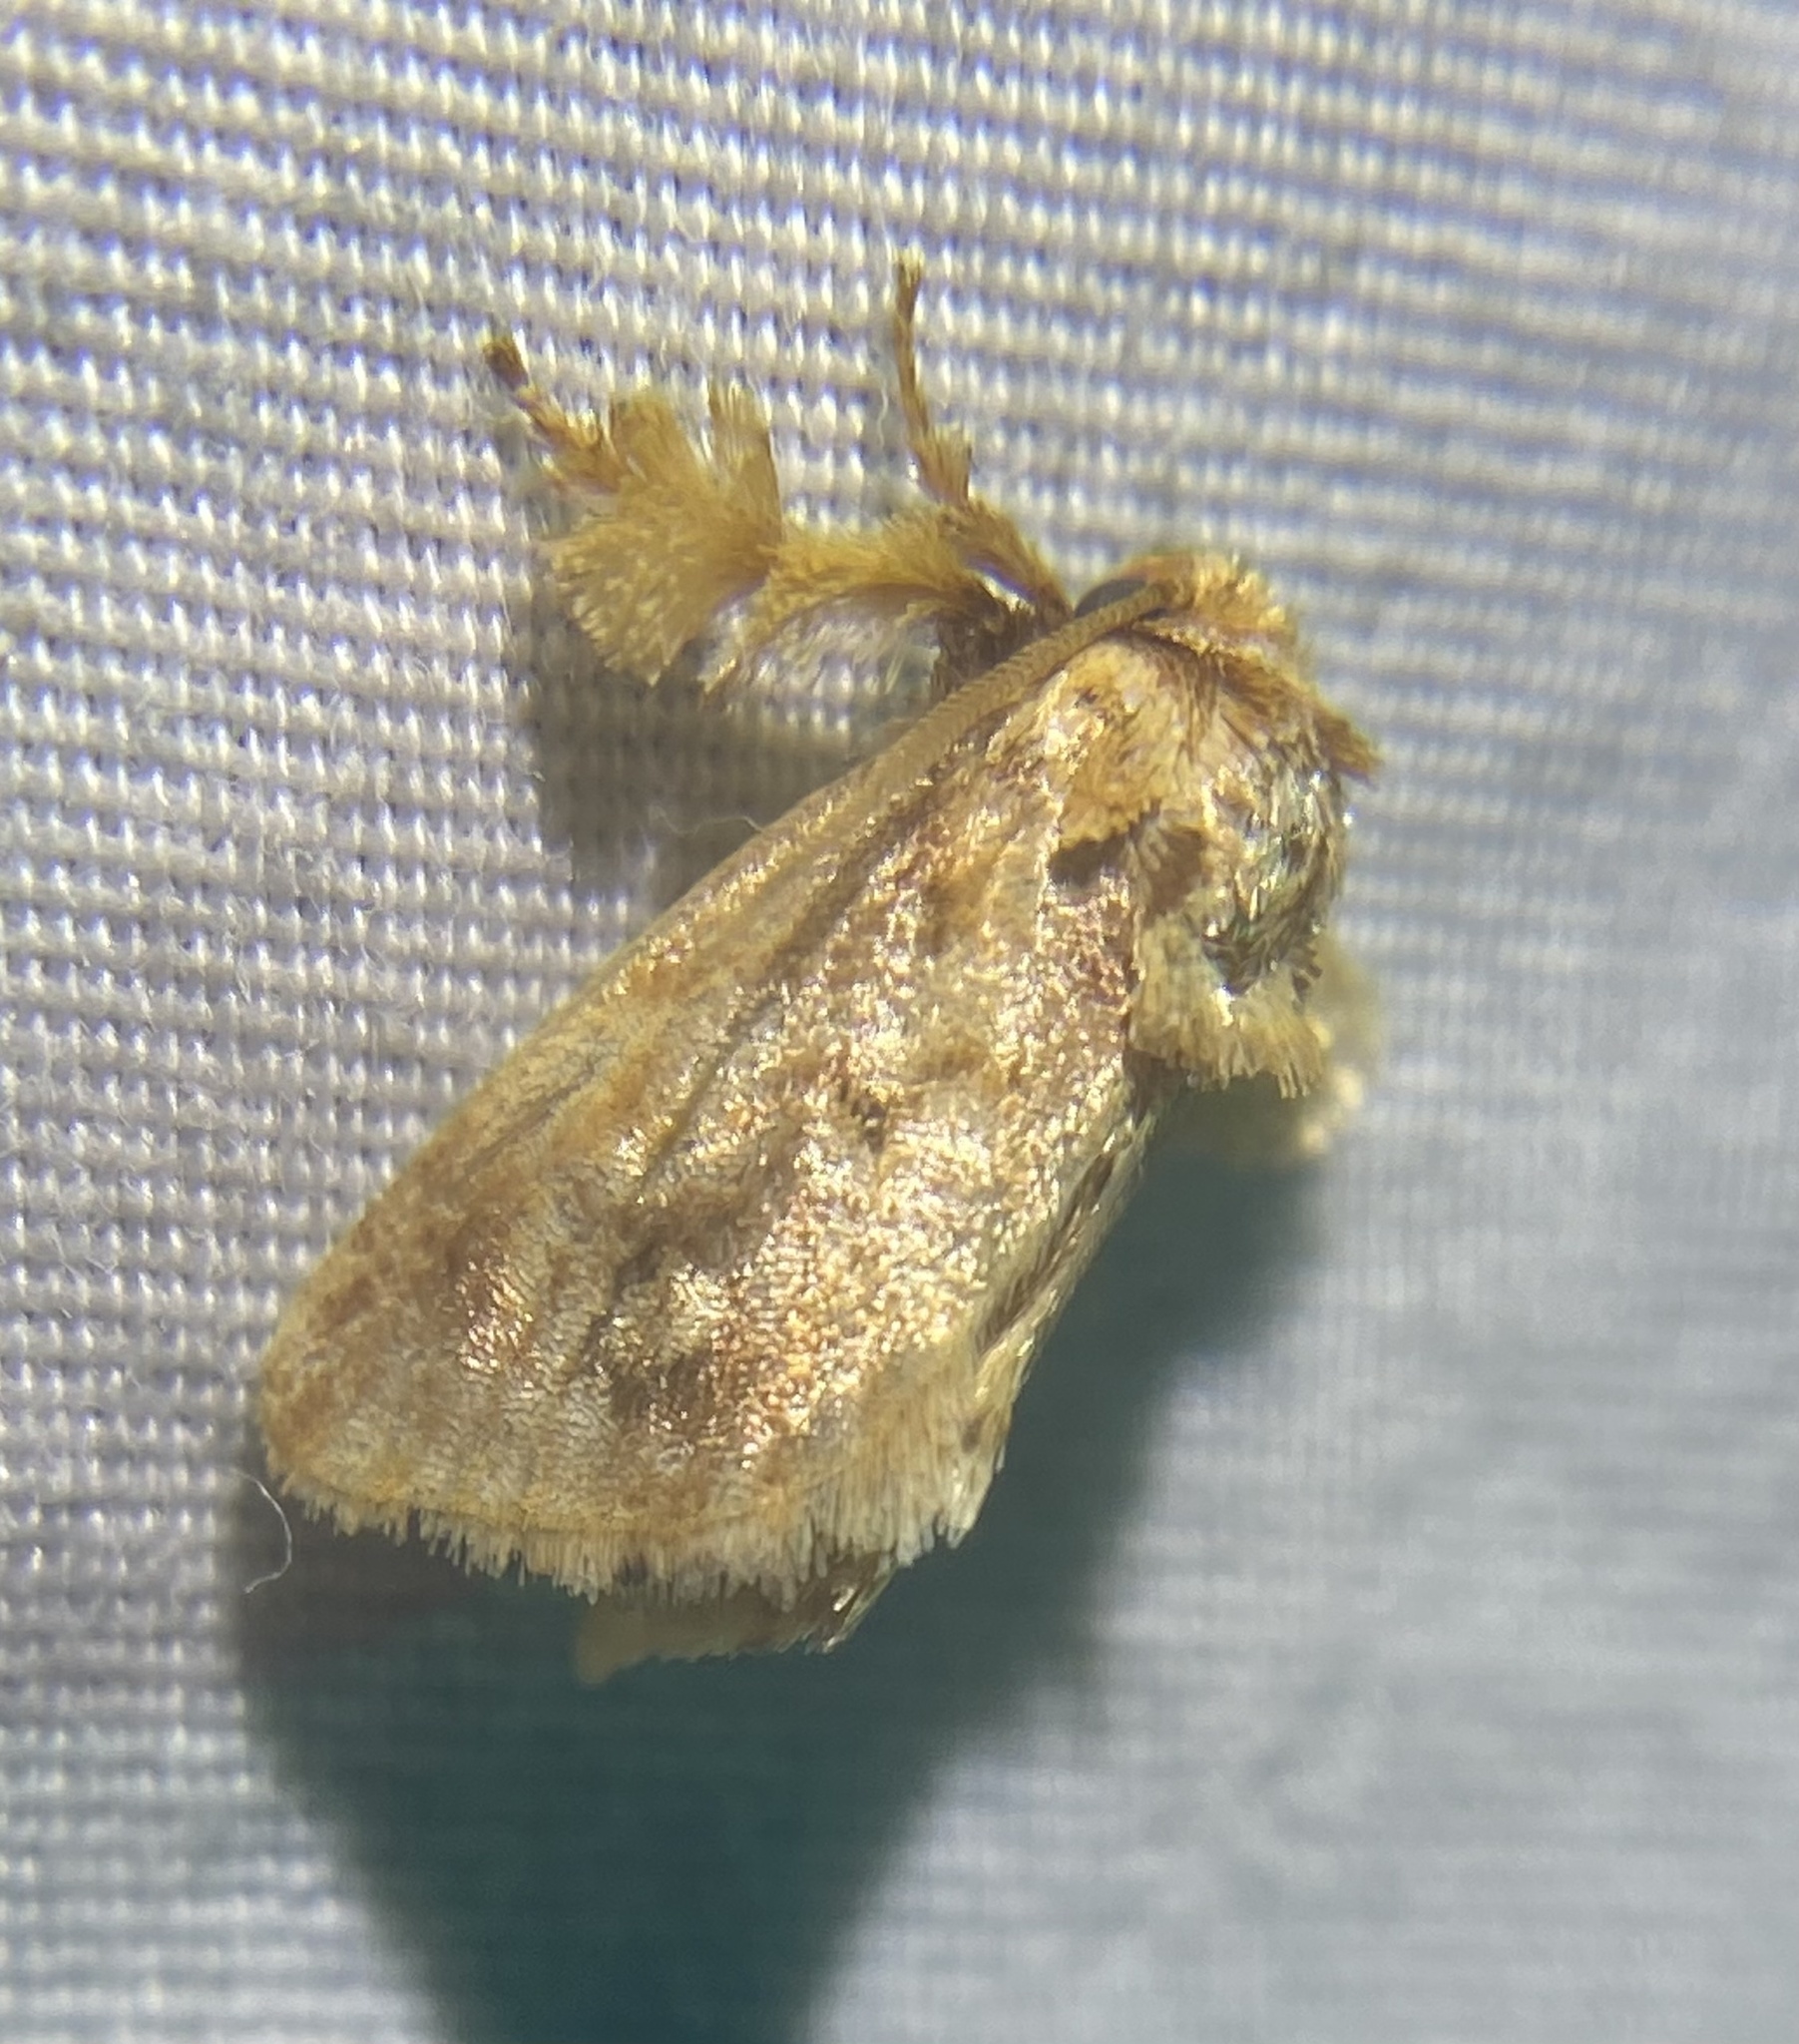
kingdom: Animalia
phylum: Arthropoda
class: Insecta
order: Lepidoptera
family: Limacodidae
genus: Isochaetes
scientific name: Isochaetes beutenmuelleri
